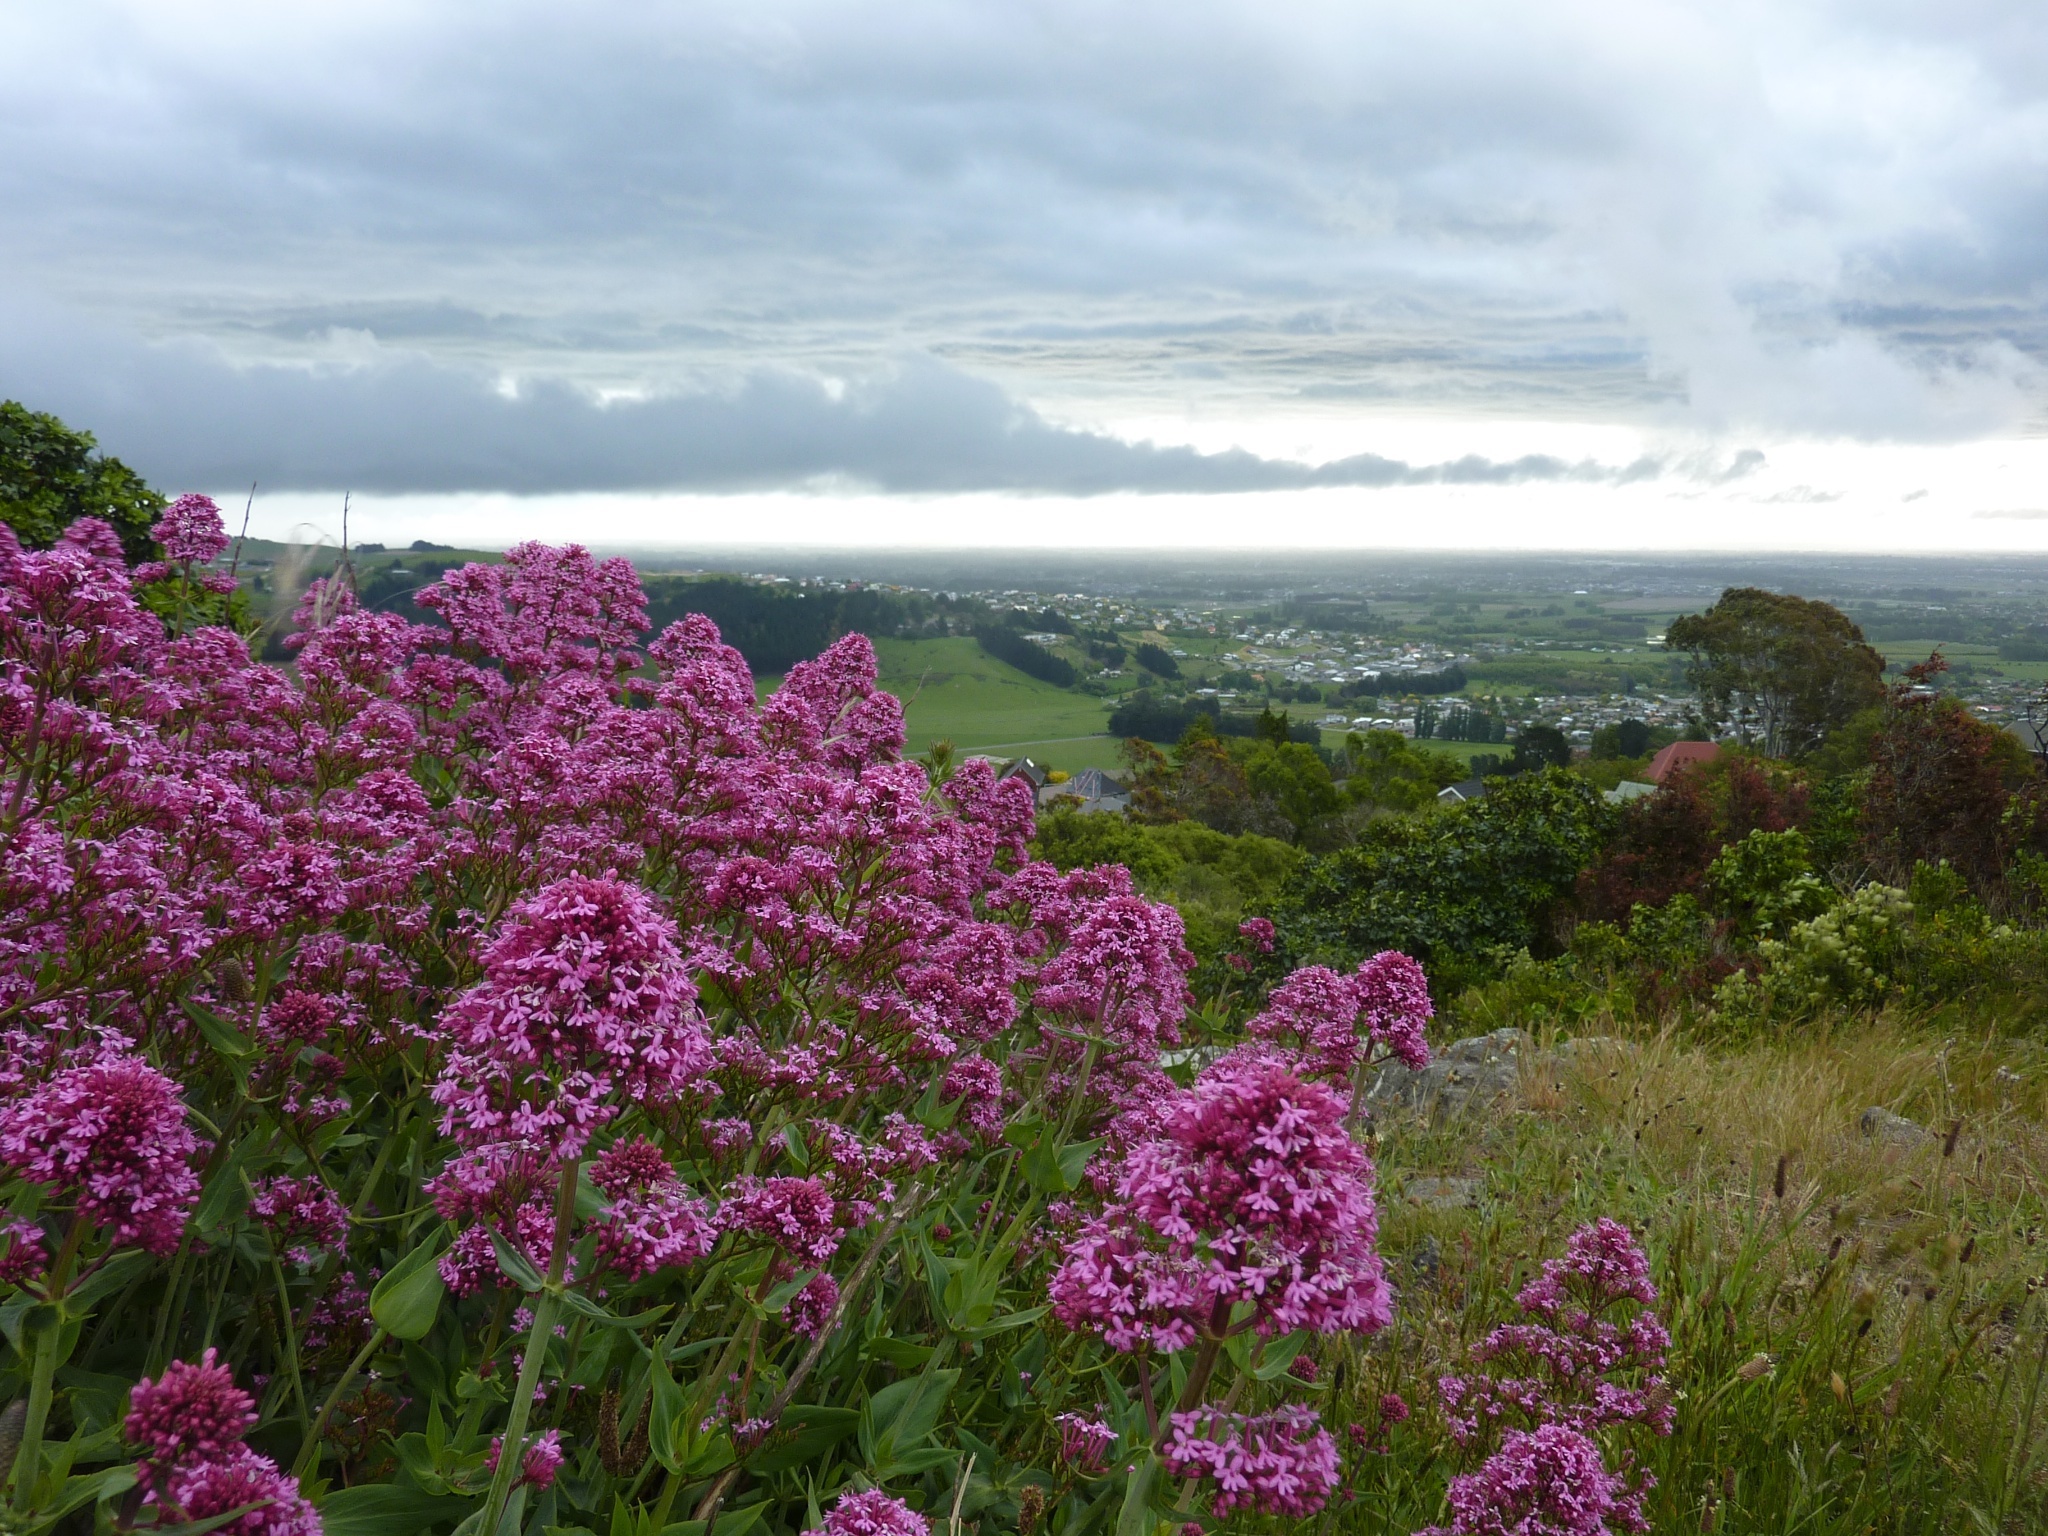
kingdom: Plantae
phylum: Tracheophyta
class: Magnoliopsida
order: Dipsacales
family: Caprifoliaceae
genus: Centranthus
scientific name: Centranthus ruber
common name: Red valerian
